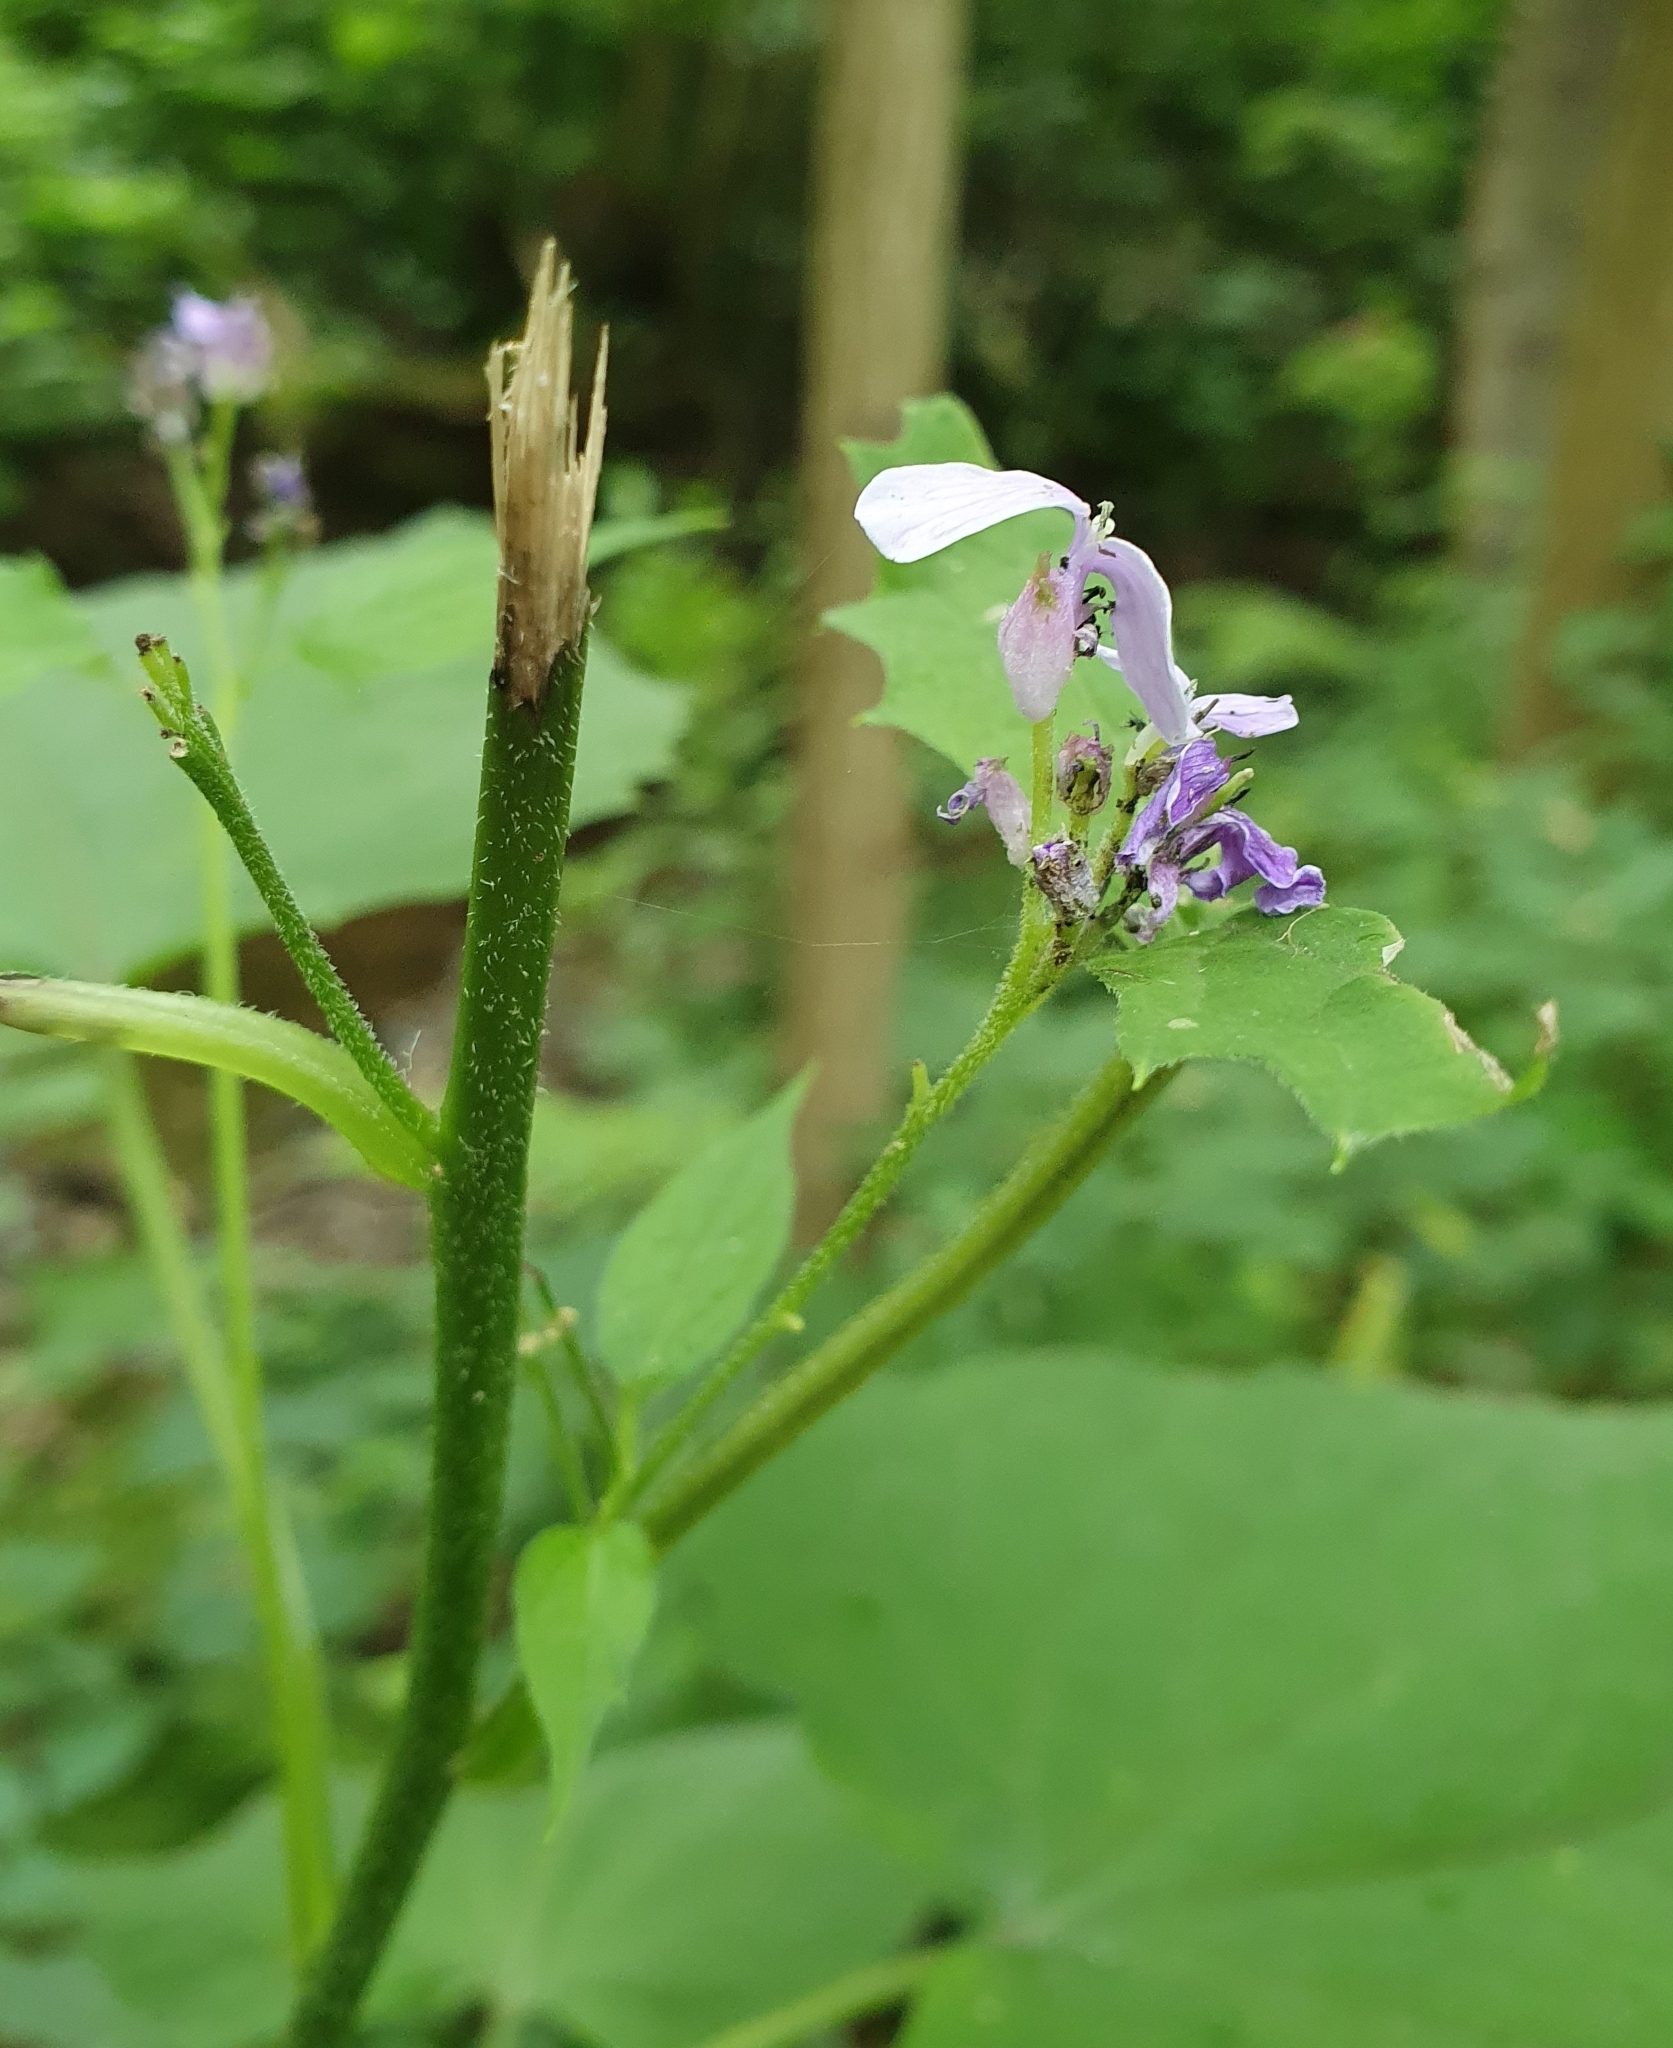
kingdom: Plantae
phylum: Tracheophyta
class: Magnoliopsida
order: Brassicales
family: Brassicaceae
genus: Lunaria
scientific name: Lunaria rediviva
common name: Perennial honesty
